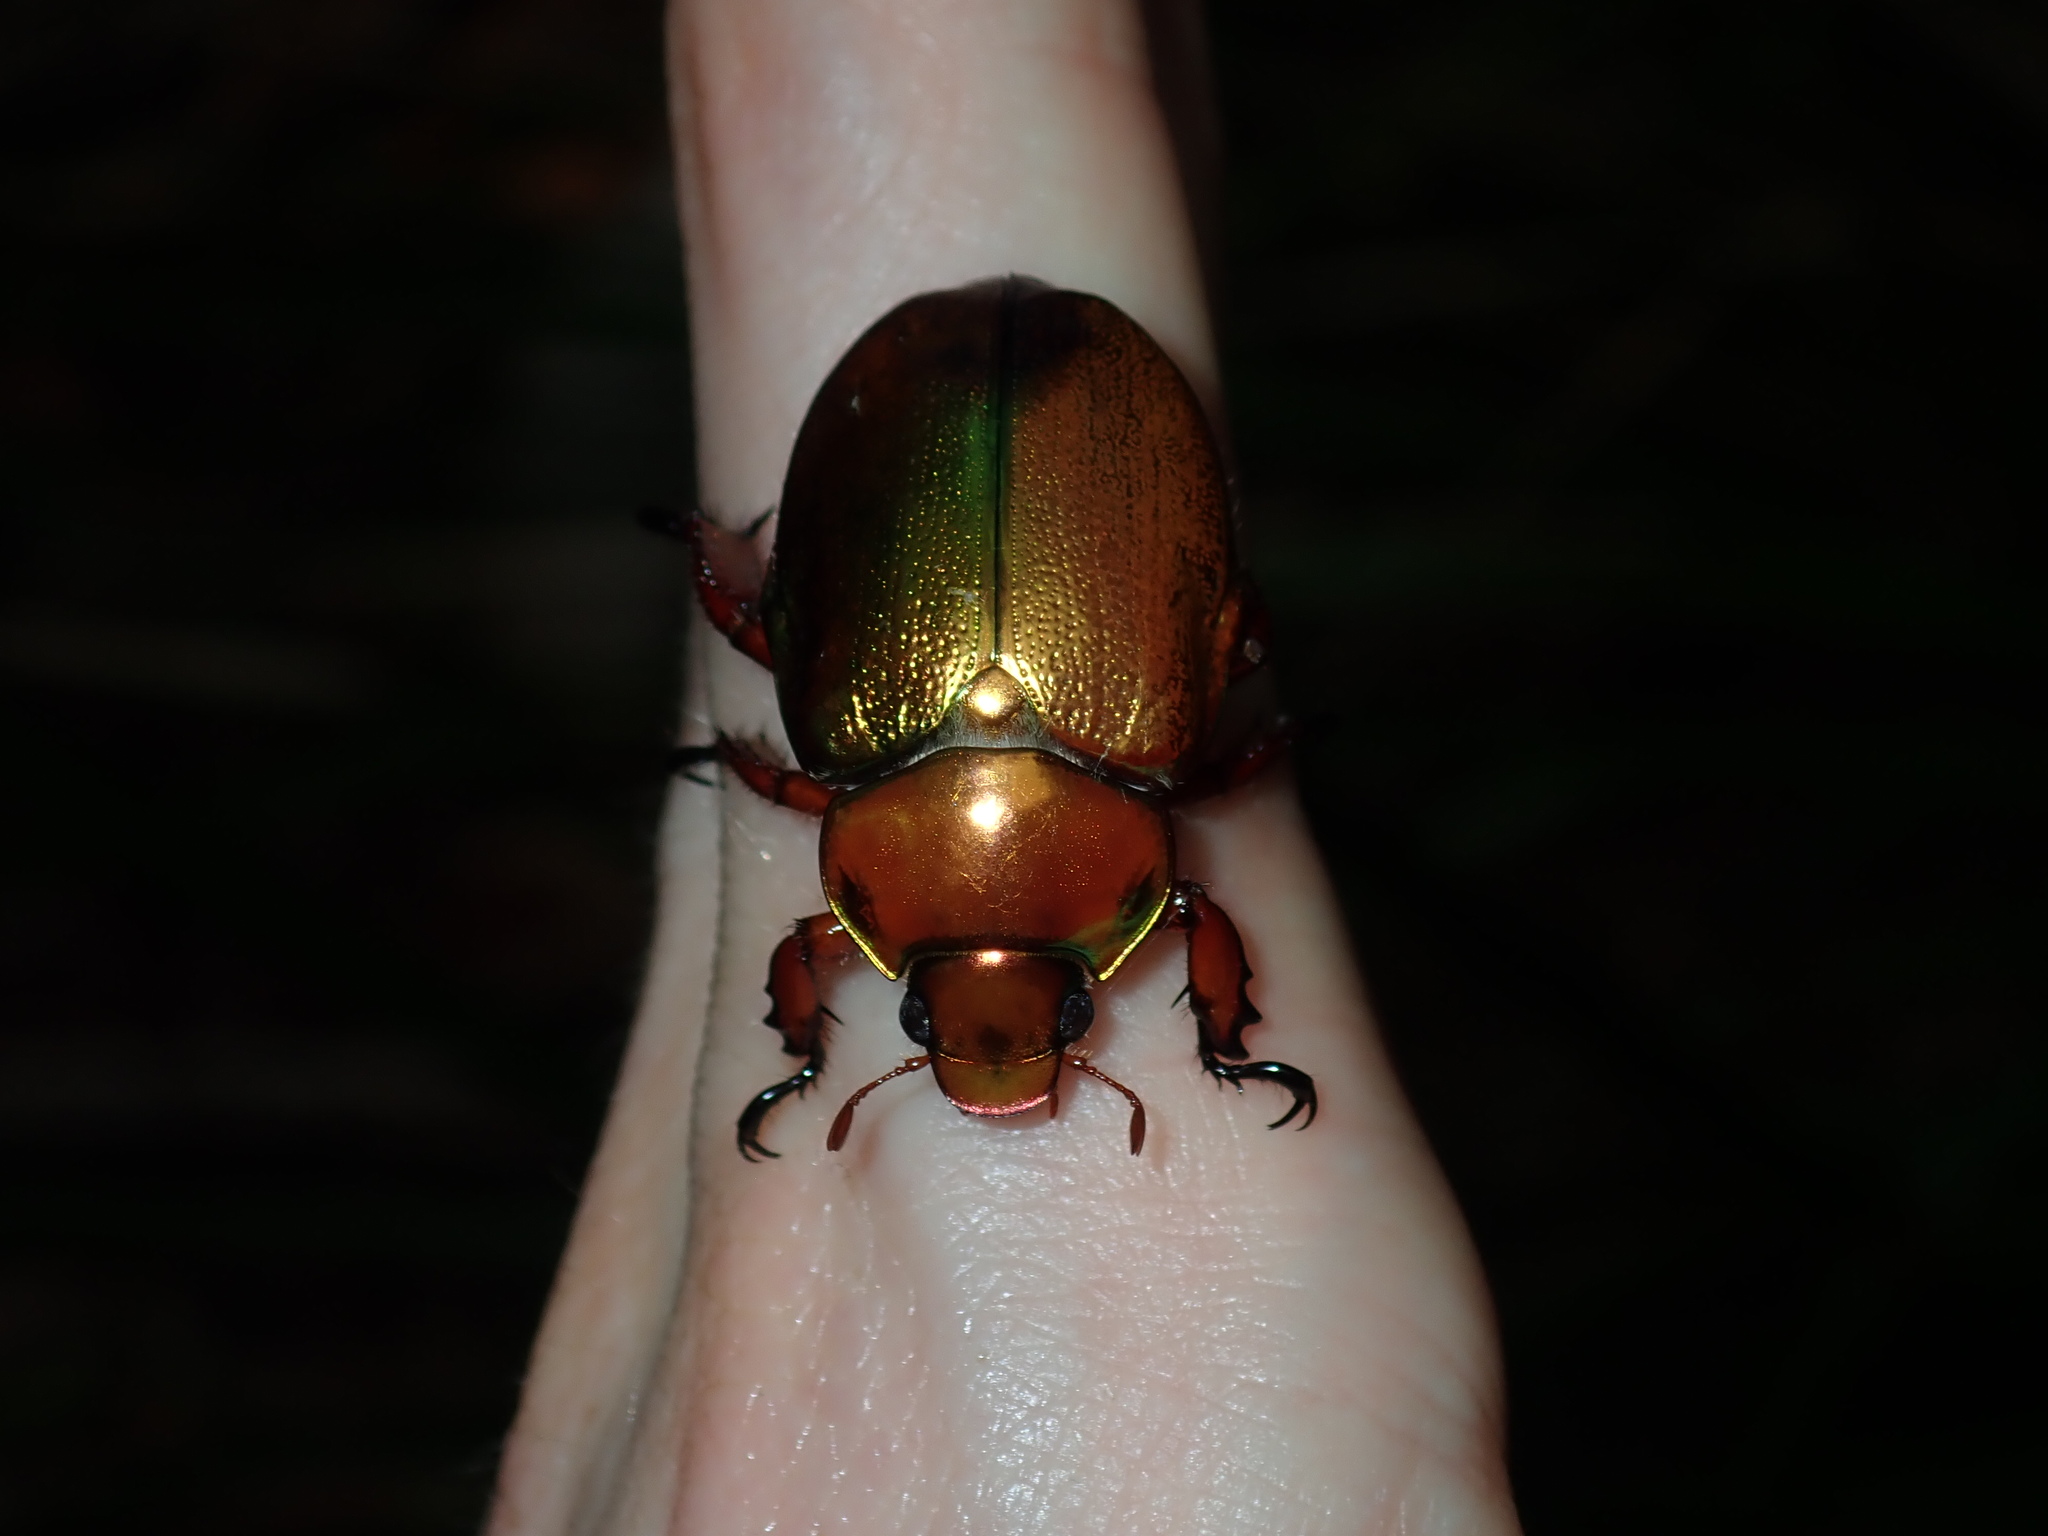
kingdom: Animalia
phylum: Arthropoda
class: Insecta
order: Coleoptera
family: Scarabaeidae
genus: Anoplognathus
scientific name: Anoplognathus viridiaeneus
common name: King christmas beetle
